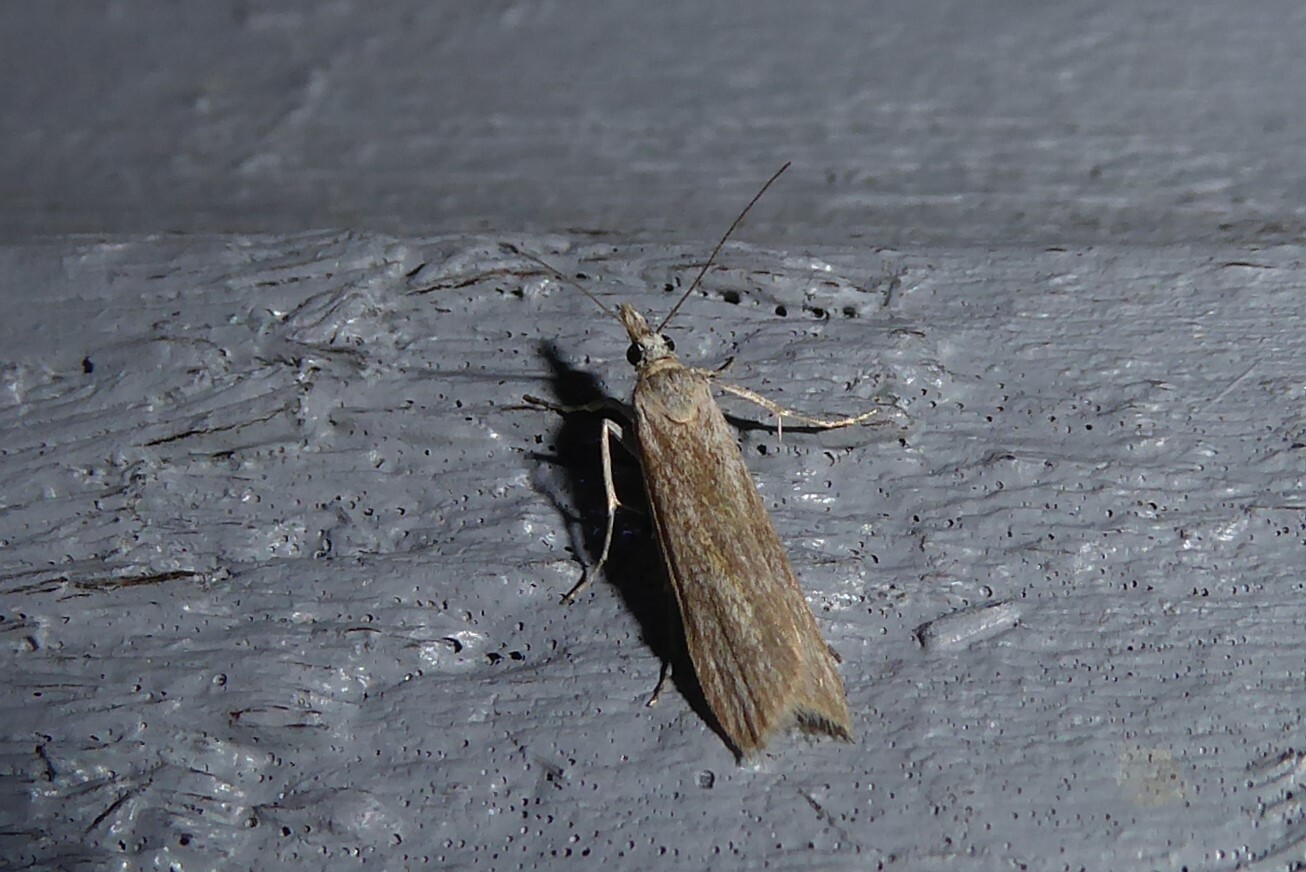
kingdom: Animalia
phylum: Arthropoda
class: Insecta
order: Lepidoptera
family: Crambidae
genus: Eudonia
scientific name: Eudonia leptalea
